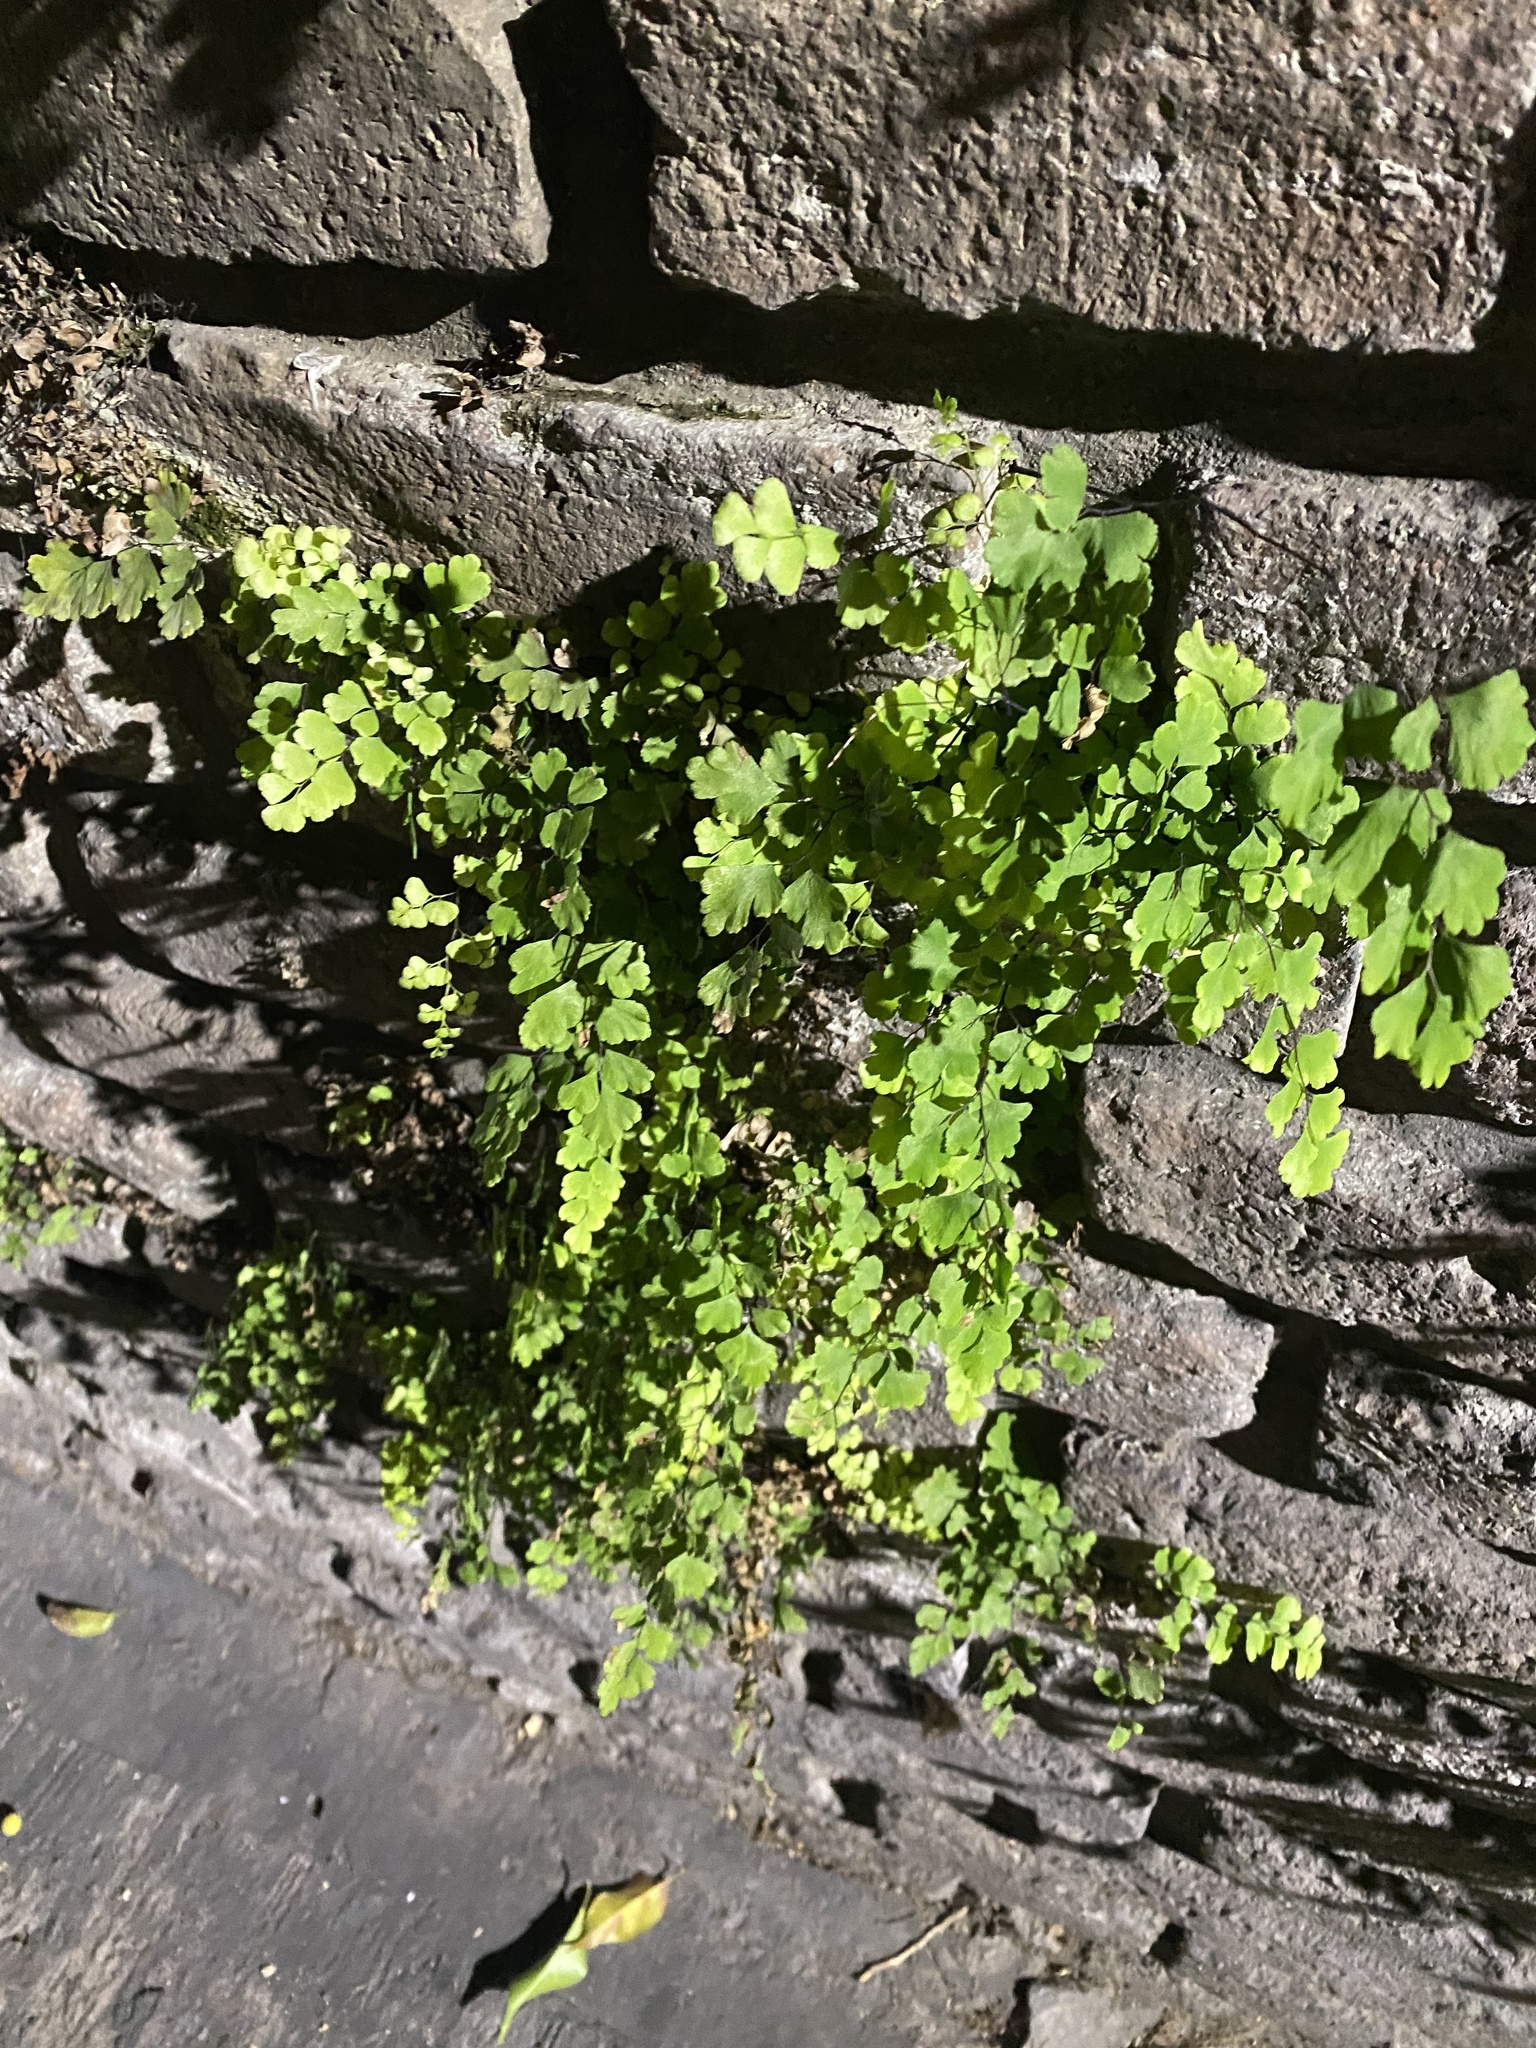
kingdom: Plantae
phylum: Tracheophyta
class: Polypodiopsida
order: Polypodiales
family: Pteridaceae
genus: Adiantum
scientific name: Adiantum capillus-veneris
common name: Maidenhair fern
